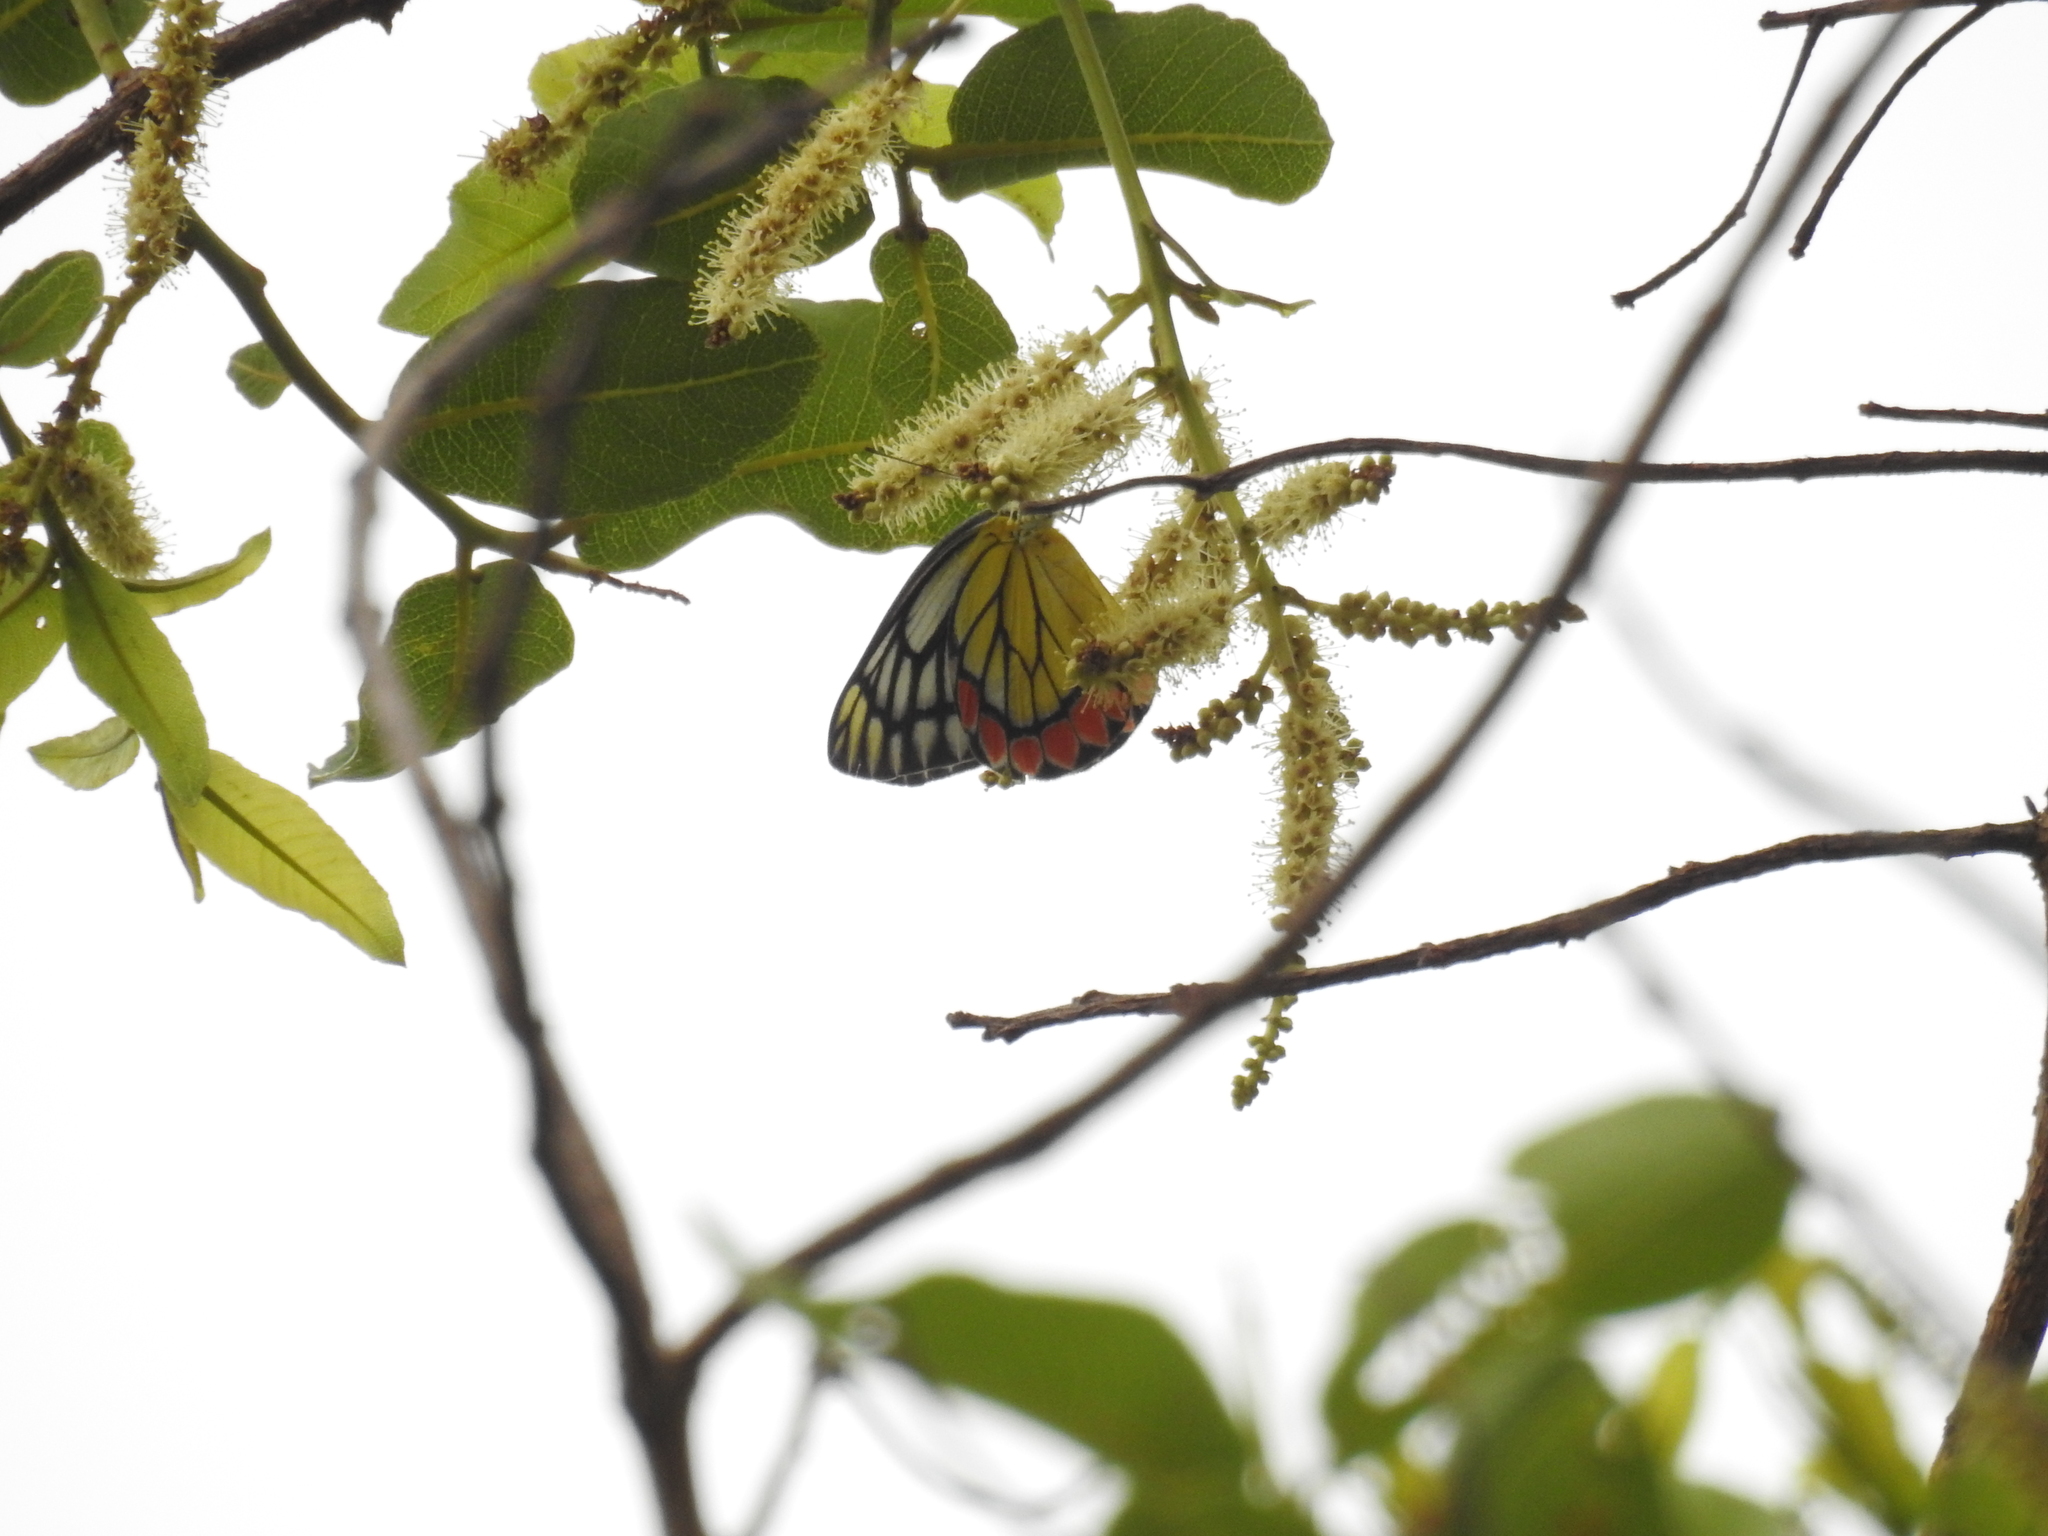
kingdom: Animalia
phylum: Arthropoda
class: Insecta
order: Lepidoptera
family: Pieridae
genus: Delias
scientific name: Delias eucharis
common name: Common jezebel
